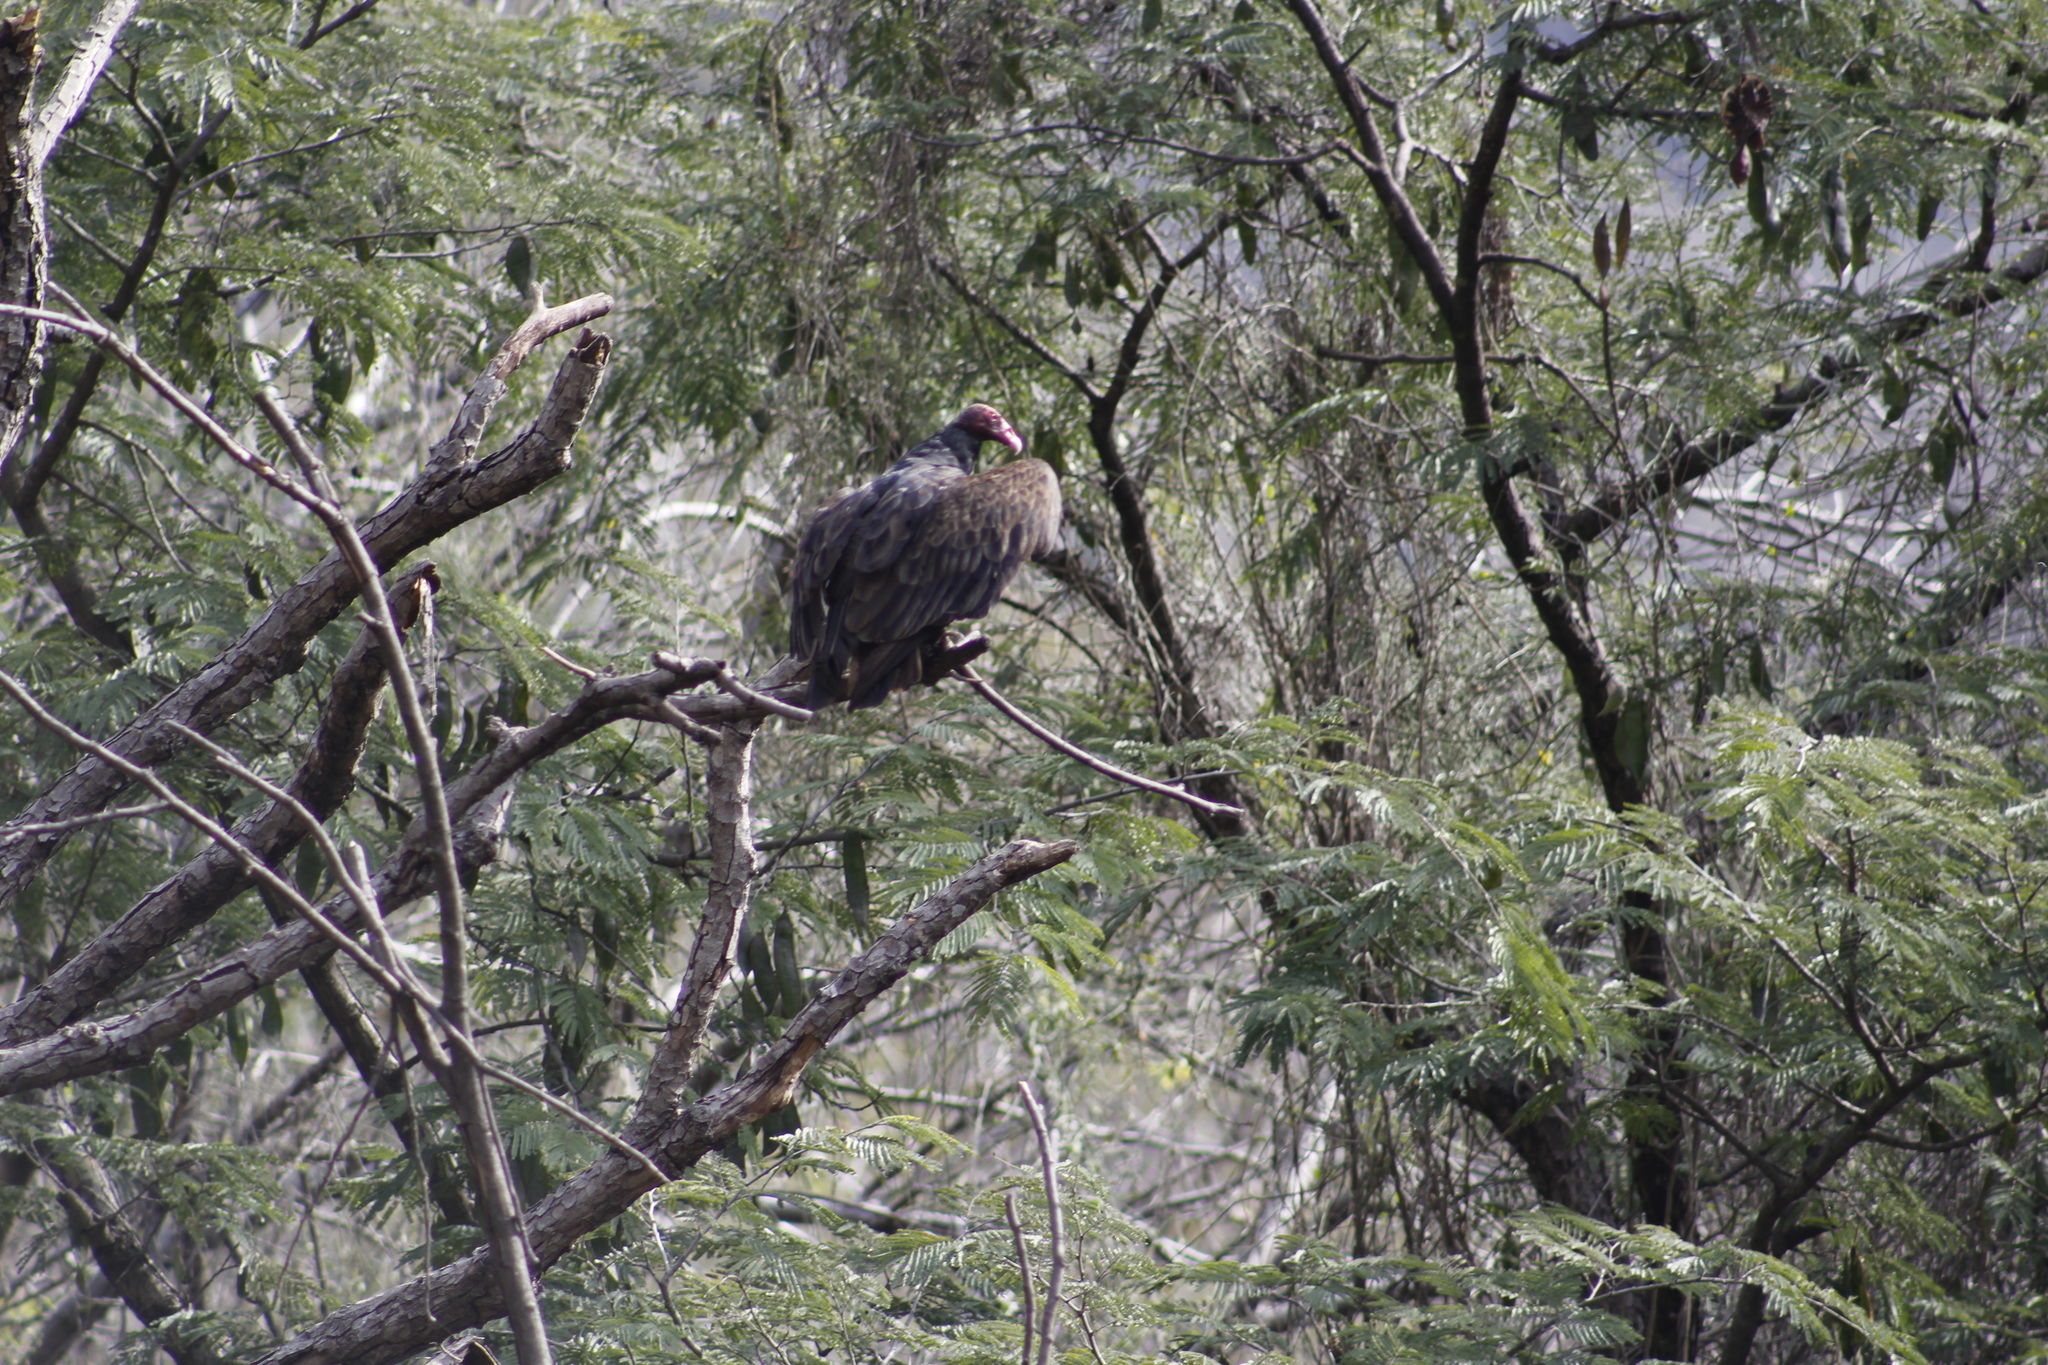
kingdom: Animalia
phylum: Chordata
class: Aves
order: Accipitriformes
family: Cathartidae
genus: Cathartes
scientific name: Cathartes aura
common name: Turkey vulture
